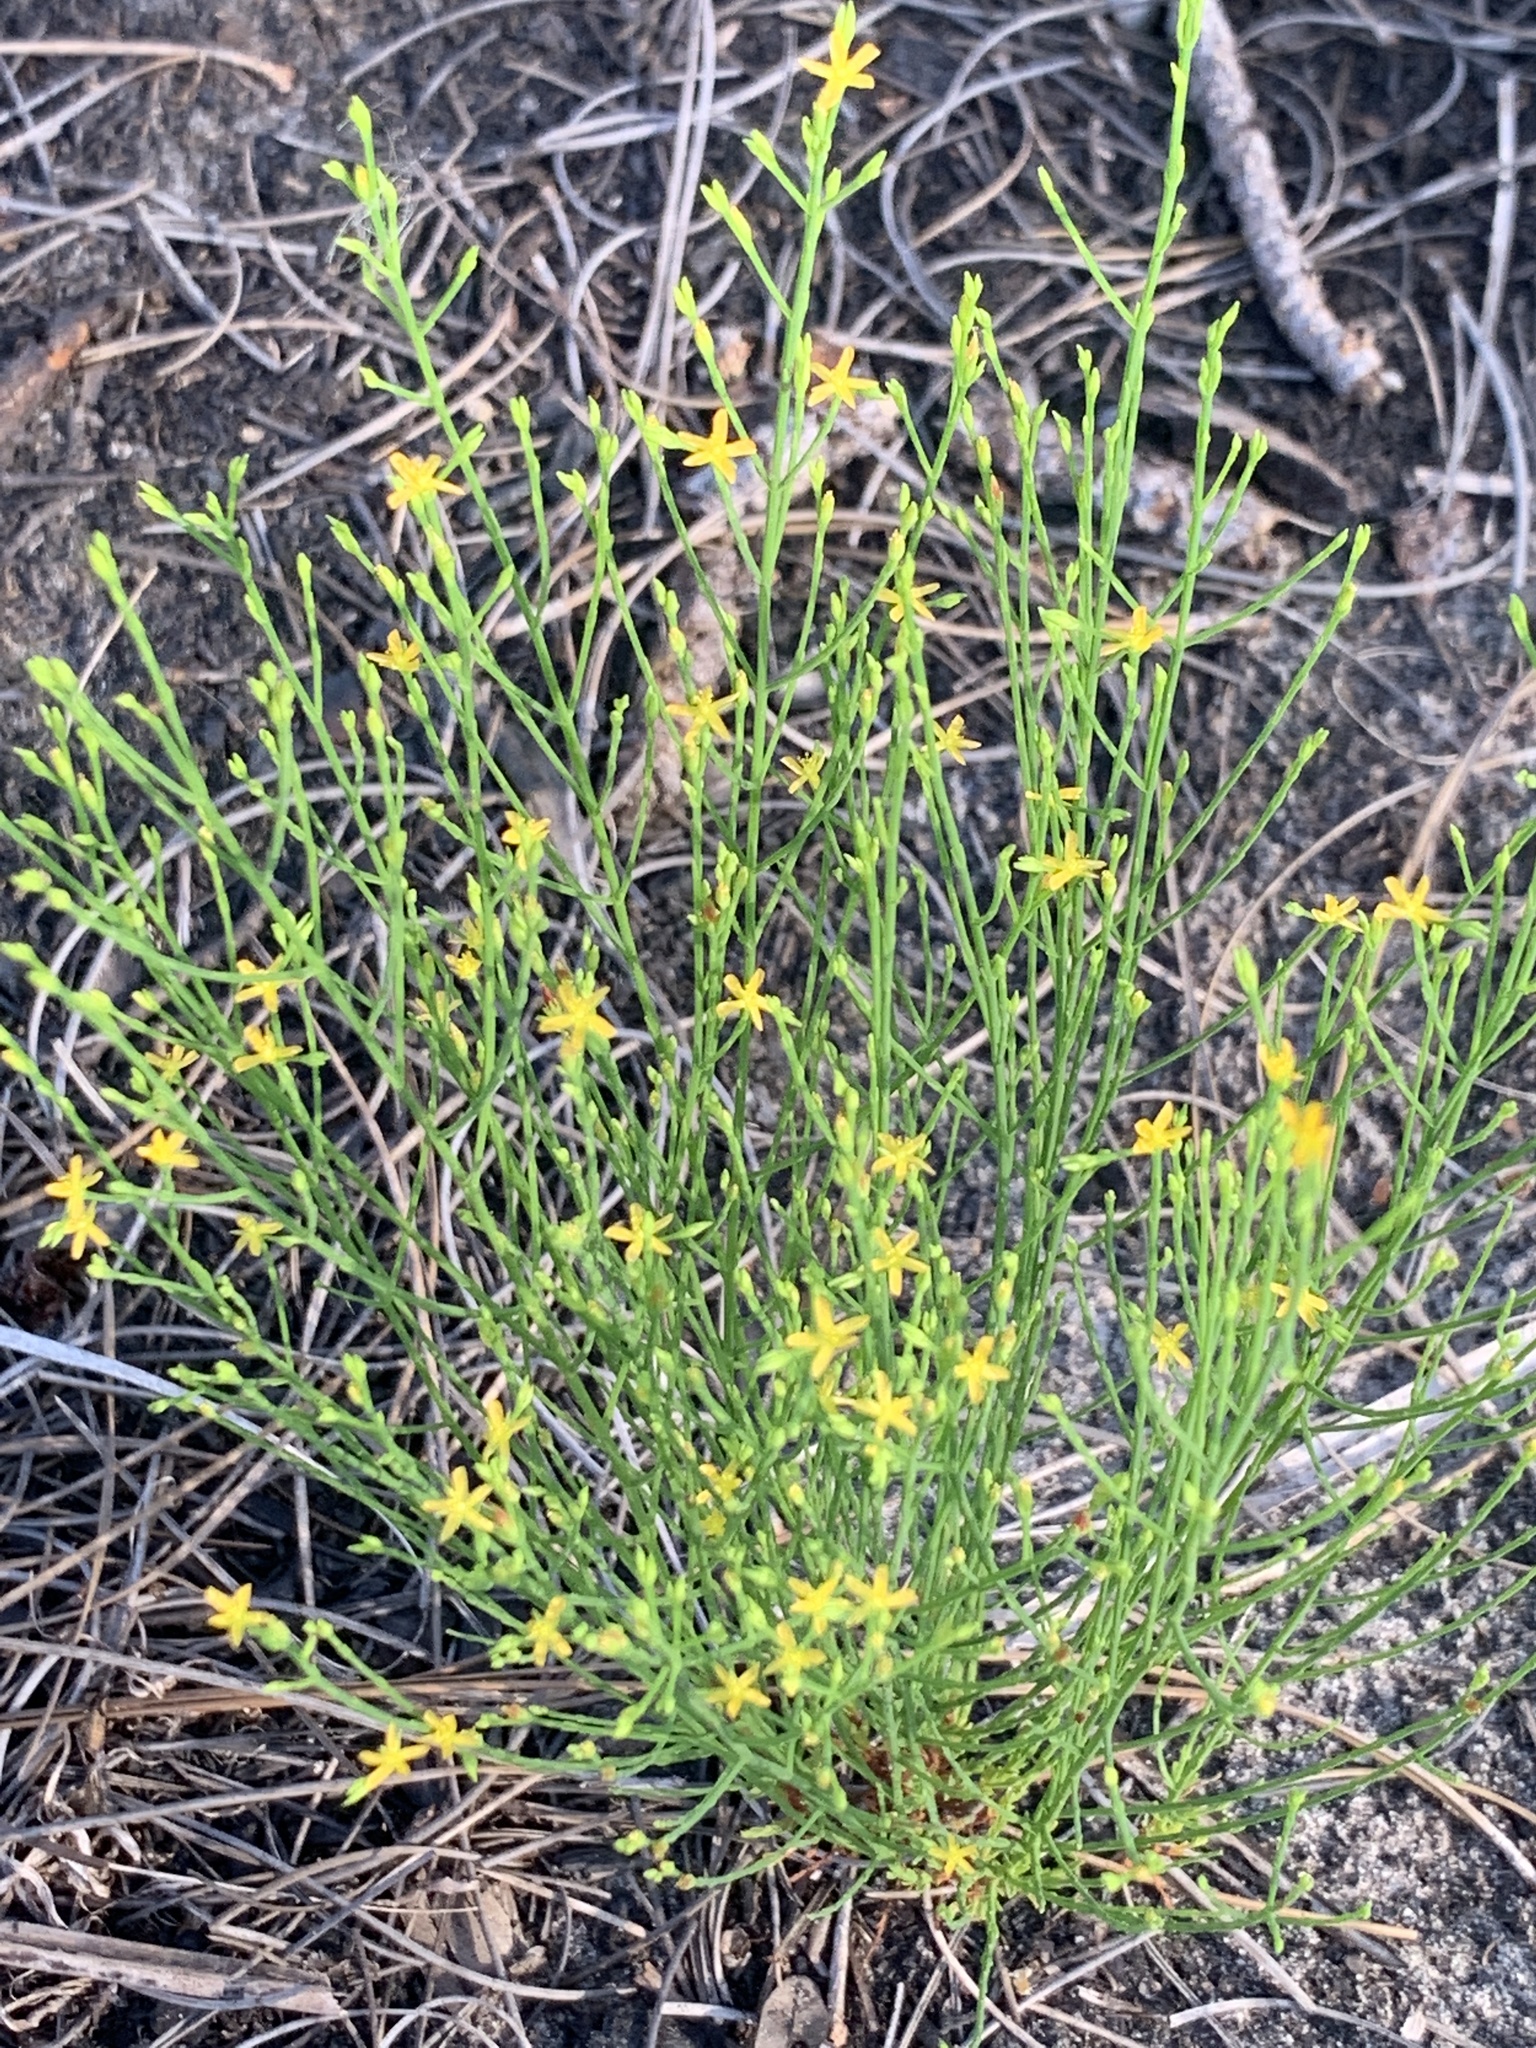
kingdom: Plantae
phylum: Tracheophyta
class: Magnoliopsida
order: Malpighiales
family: Hypericaceae
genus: Hypericum
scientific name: Hypericum gentianoides
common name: Gentian-leaved st. john's-wort
